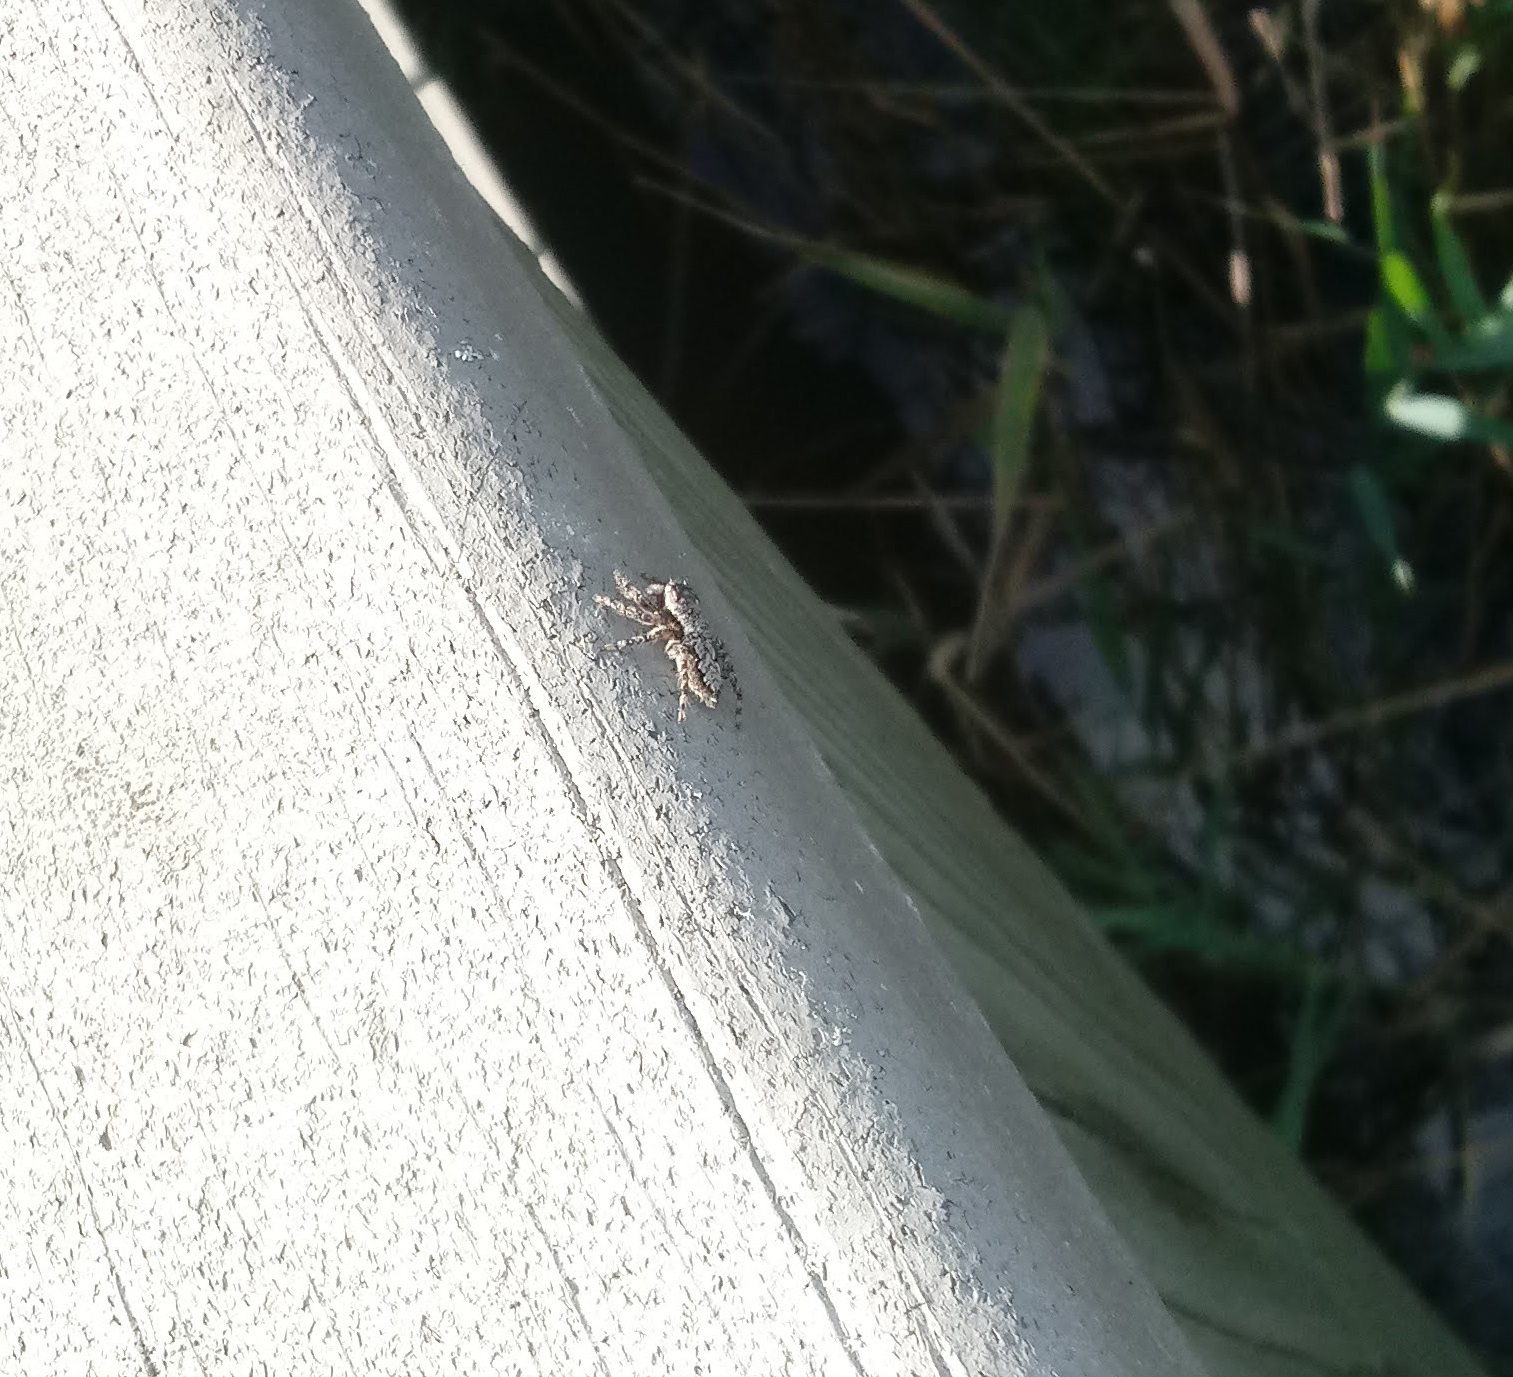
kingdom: Animalia
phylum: Arthropoda
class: Arachnida
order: Araneae
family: Salticidae
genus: Platycryptus
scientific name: Platycryptus undatus
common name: Tan jumping spider
